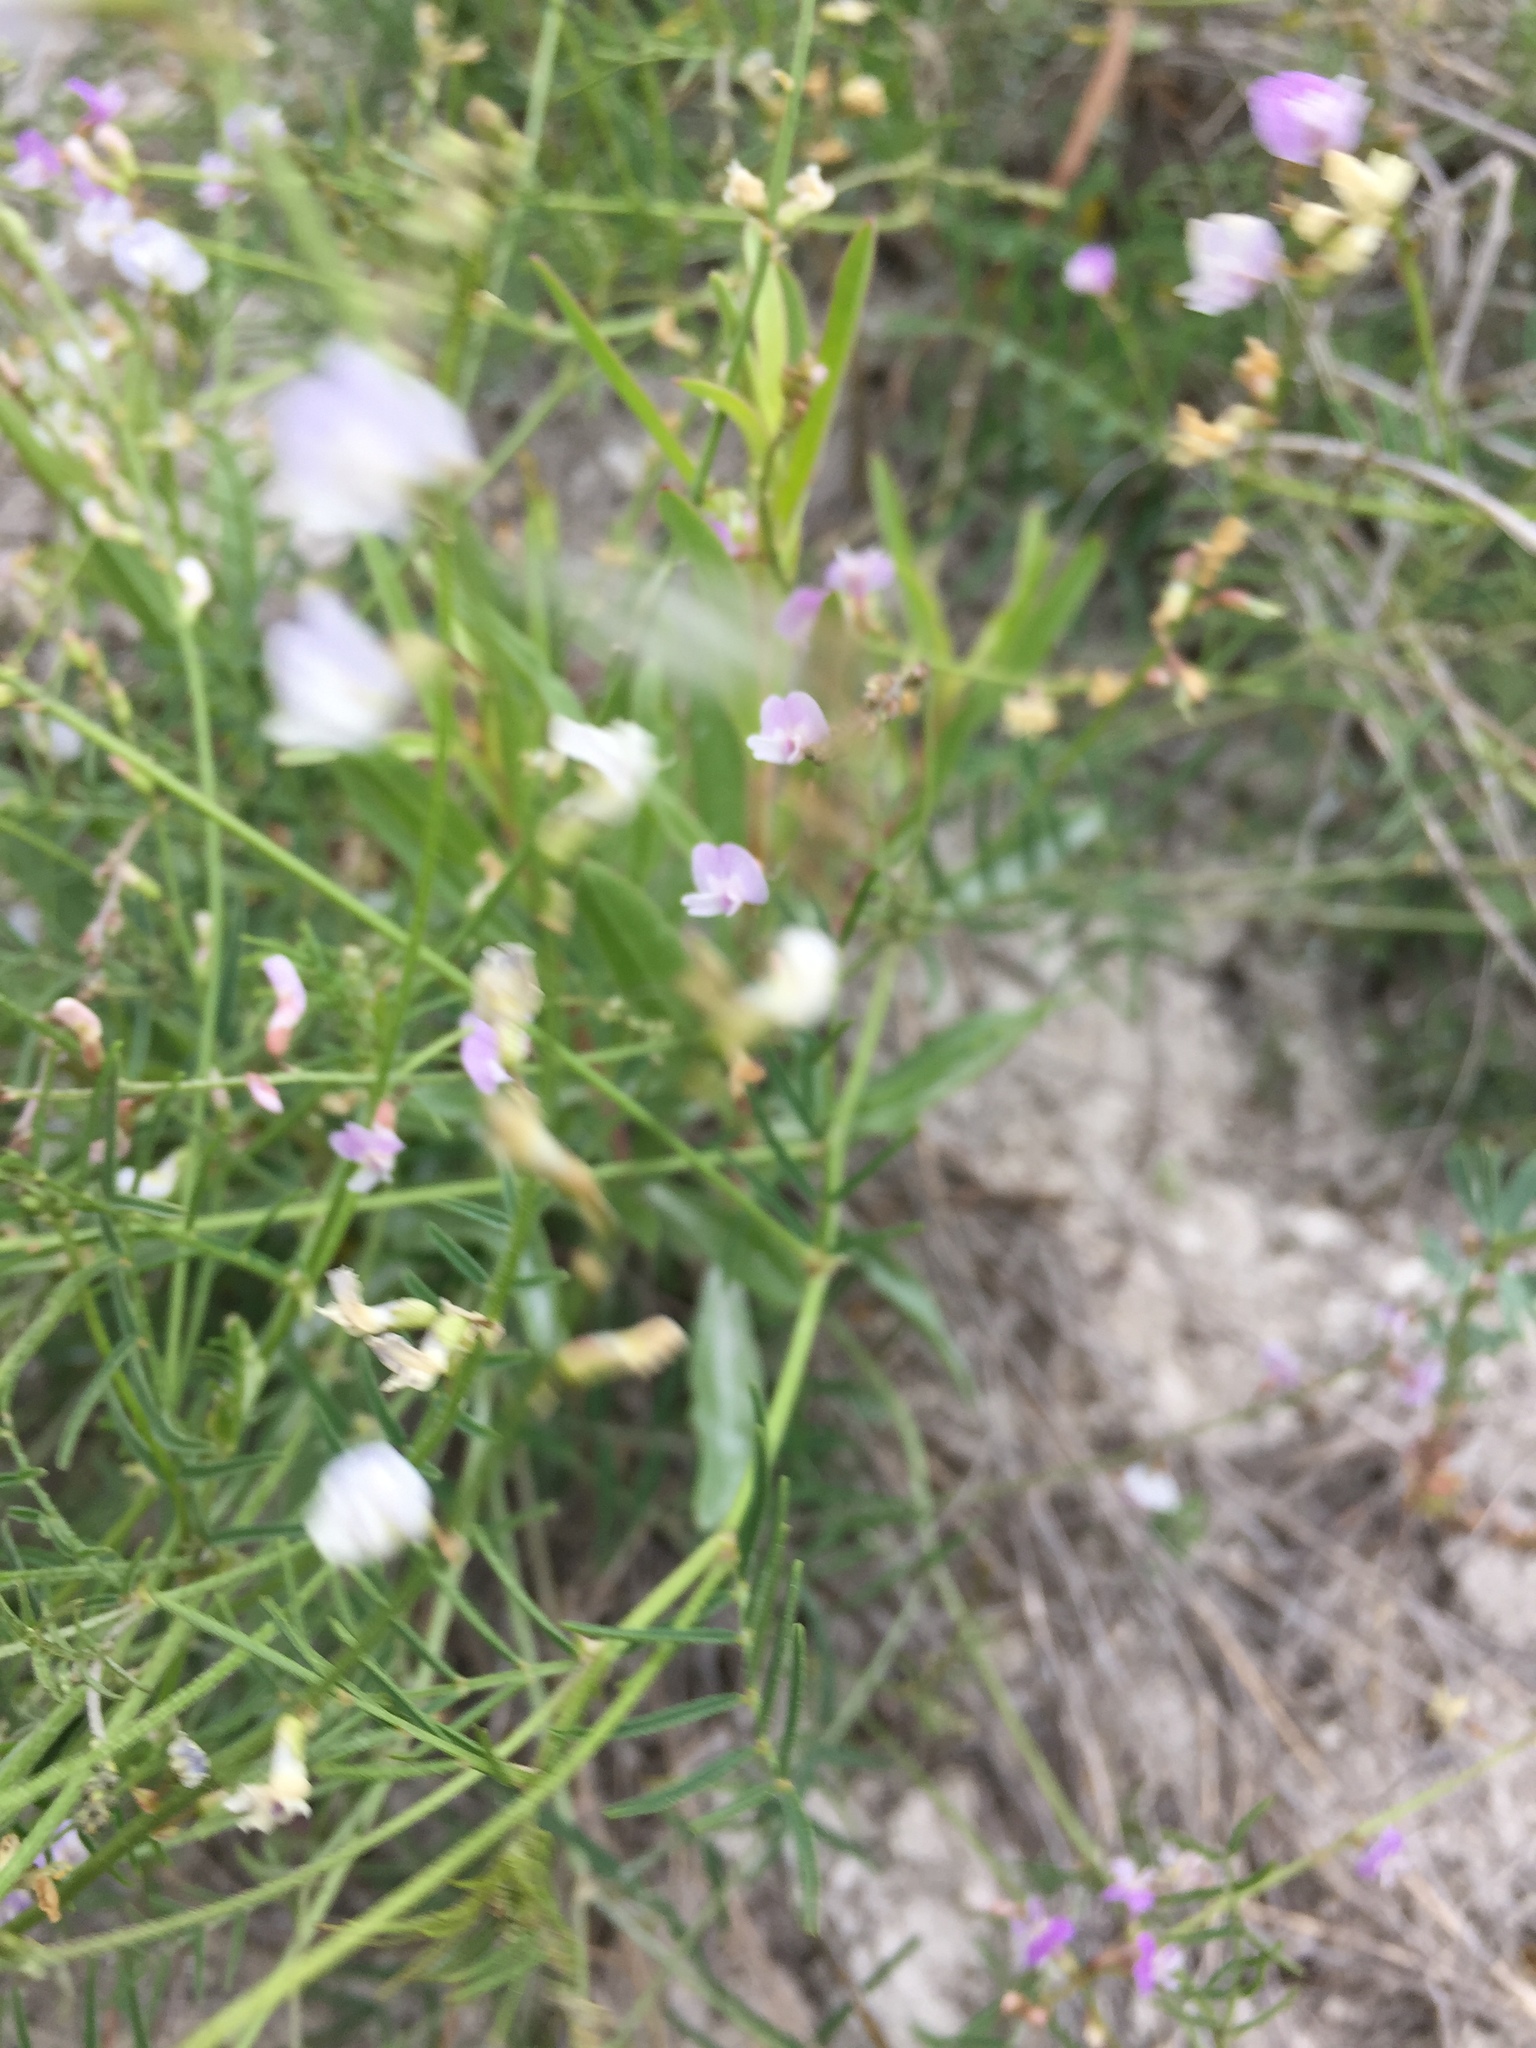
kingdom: Plantae
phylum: Tracheophyta
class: Magnoliopsida
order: Fabales
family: Fabaceae
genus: Astragalus
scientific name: Astragalus austriacus
